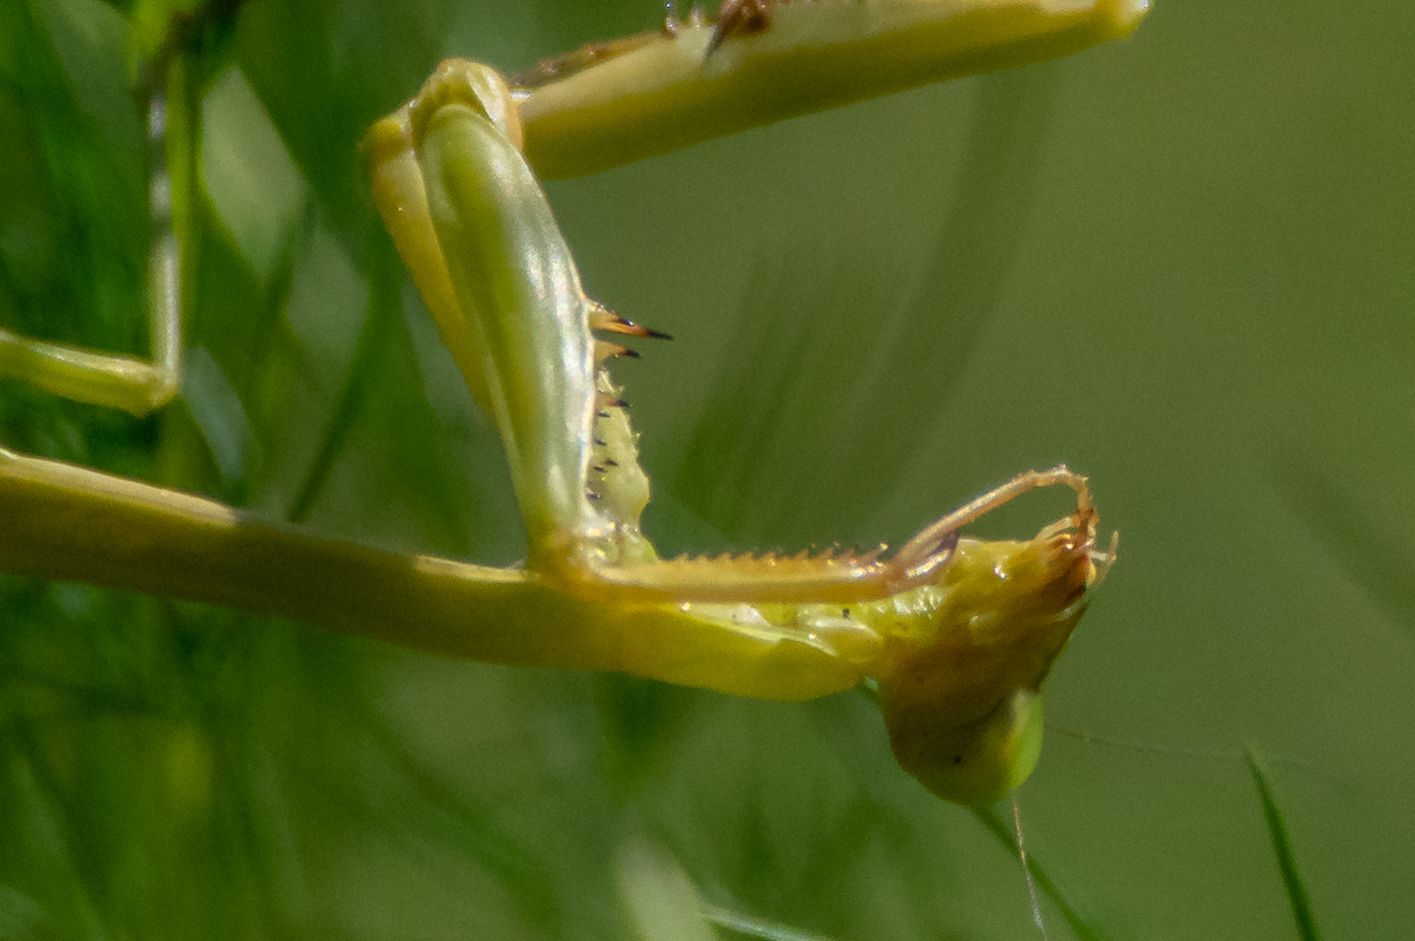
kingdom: Animalia
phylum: Arthropoda
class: Insecta
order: Mantodea
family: Mantidae
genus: Stagmomantis
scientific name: Stagmomantis carolina
